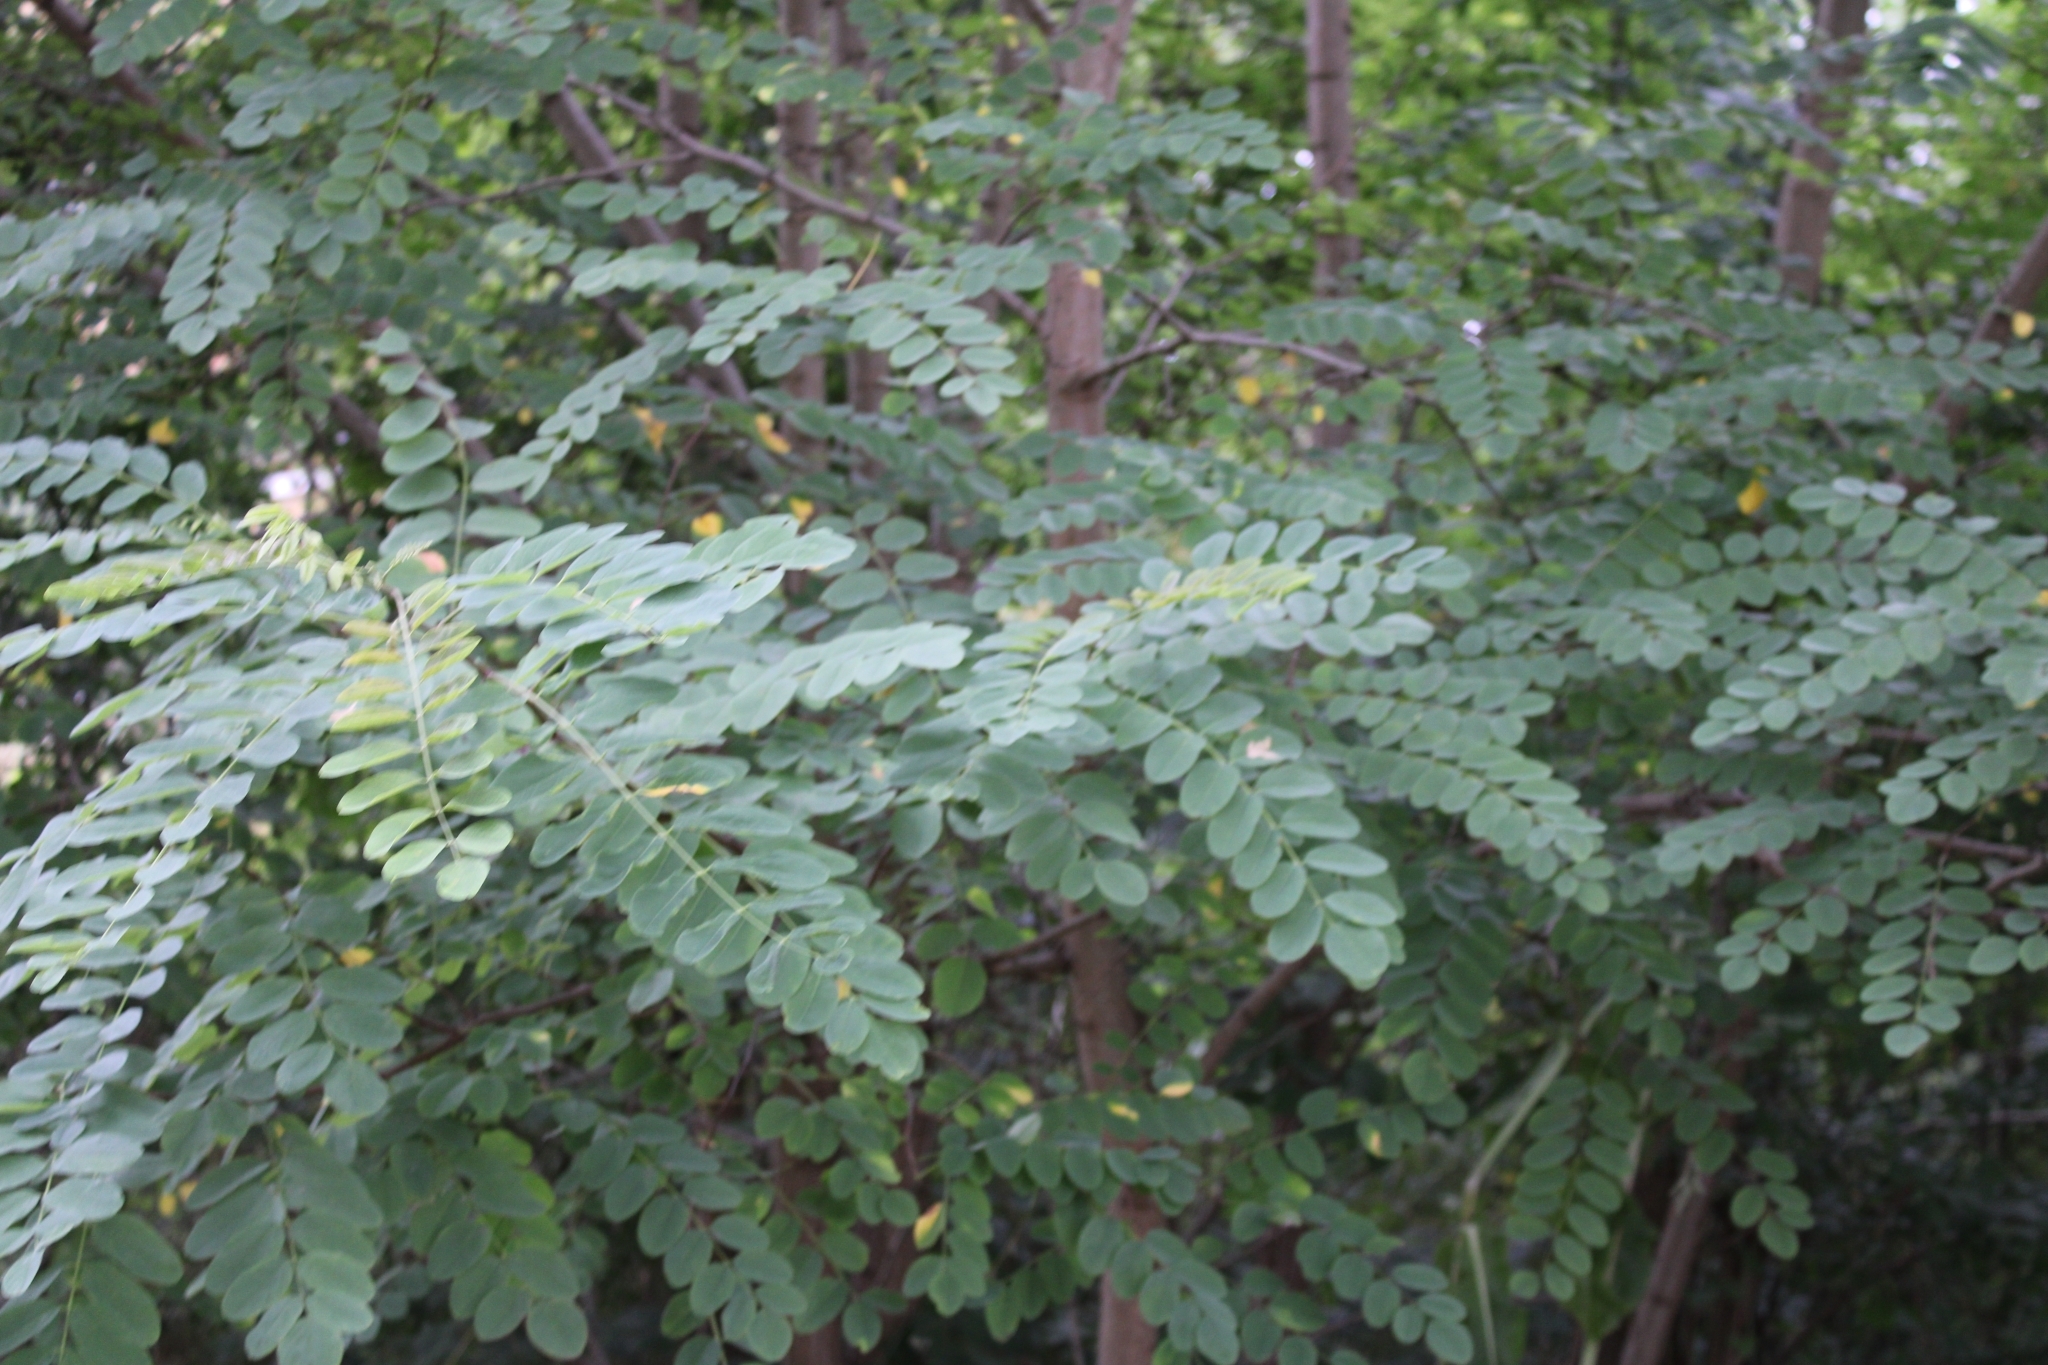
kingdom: Plantae
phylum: Tracheophyta
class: Magnoliopsida
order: Fabales
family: Fabaceae
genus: Robinia
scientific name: Robinia pseudoacacia
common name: Black locust
